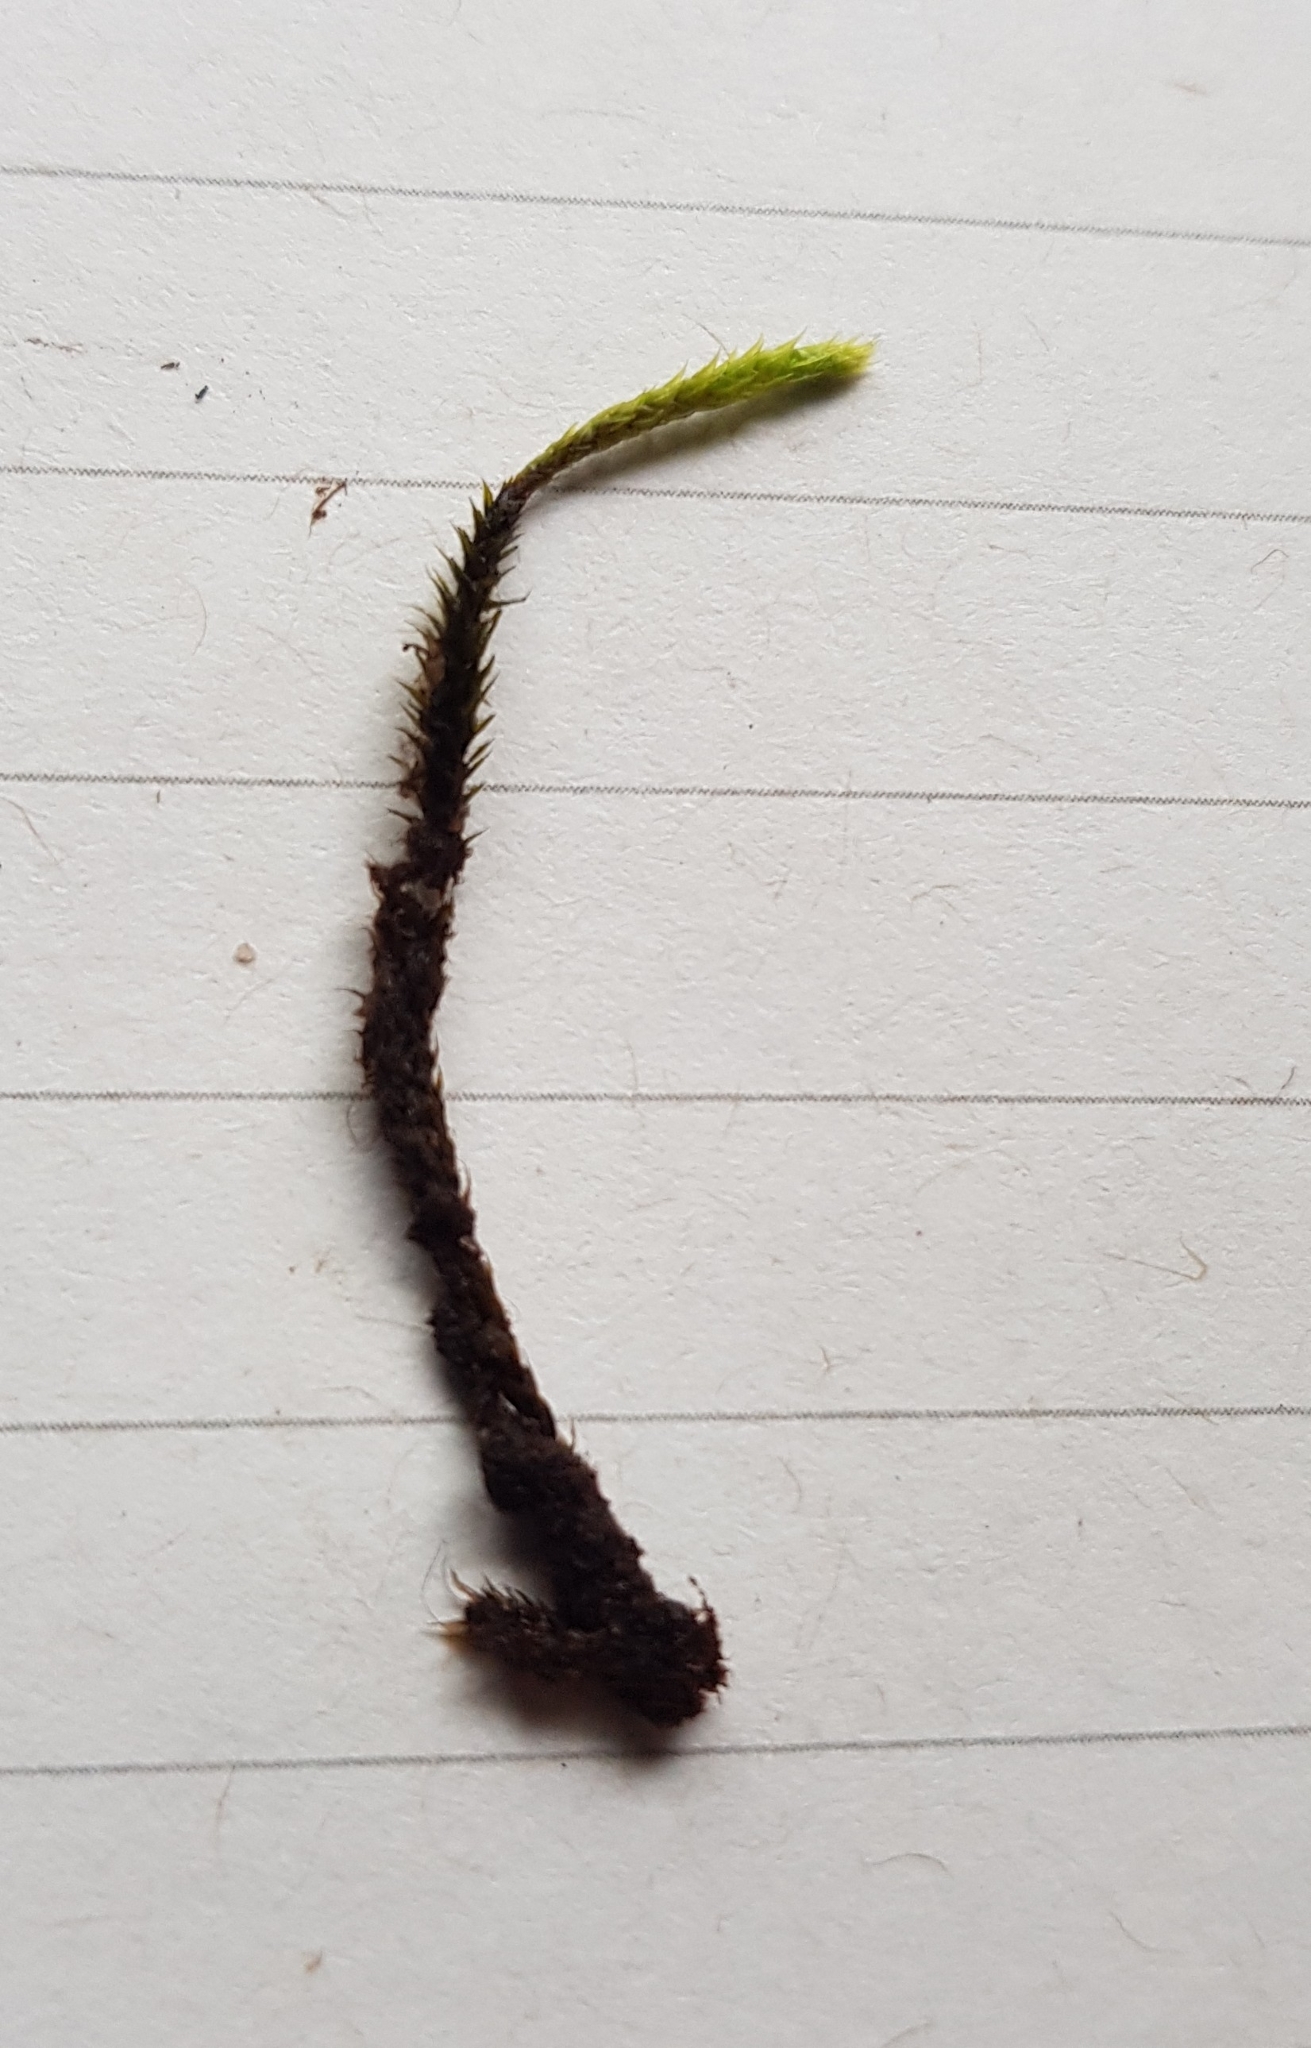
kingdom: Plantae
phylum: Bryophyta
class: Bryopsida
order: Bartramiales
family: Bartramiaceae
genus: Philonotis
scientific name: Philonotis fontana
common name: Fountain apple-moss
